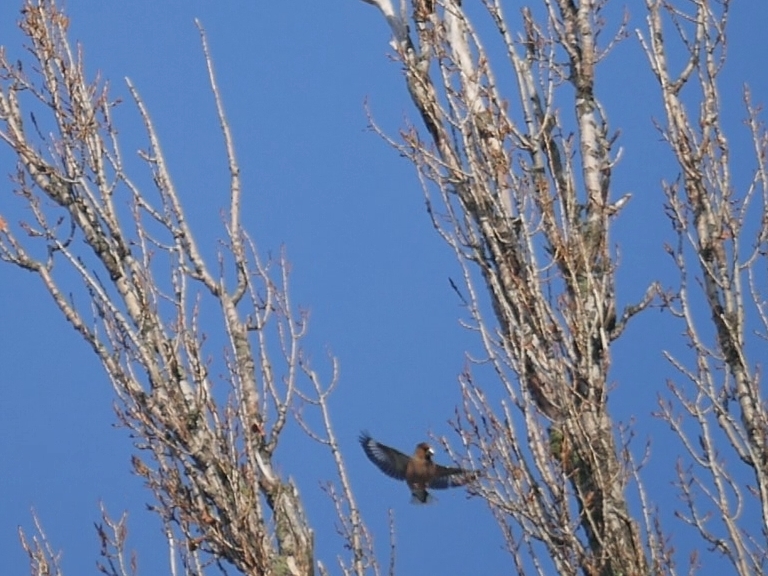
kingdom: Animalia
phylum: Chordata
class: Aves
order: Passeriformes
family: Fringillidae
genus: Coccothraustes
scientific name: Coccothraustes coccothraustes
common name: Hawfinch
